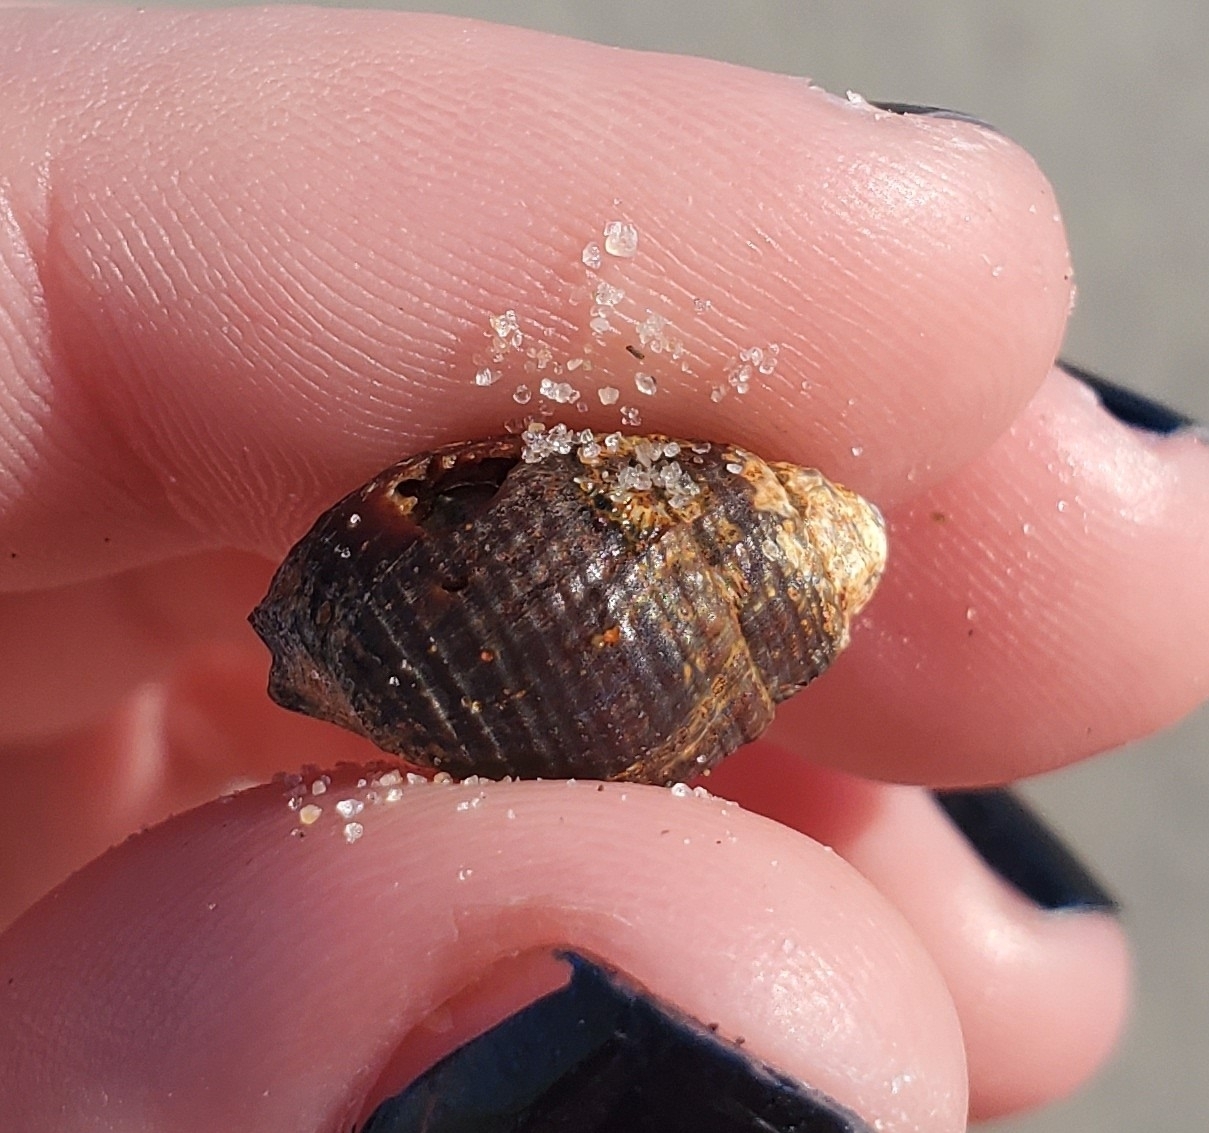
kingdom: Animalia
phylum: Mollusca
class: Gastropoda
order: Neogastropoda
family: Nassariidae
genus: Ilyanassa
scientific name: Ilyanassa obsoleta
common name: Eastern mudsnail
